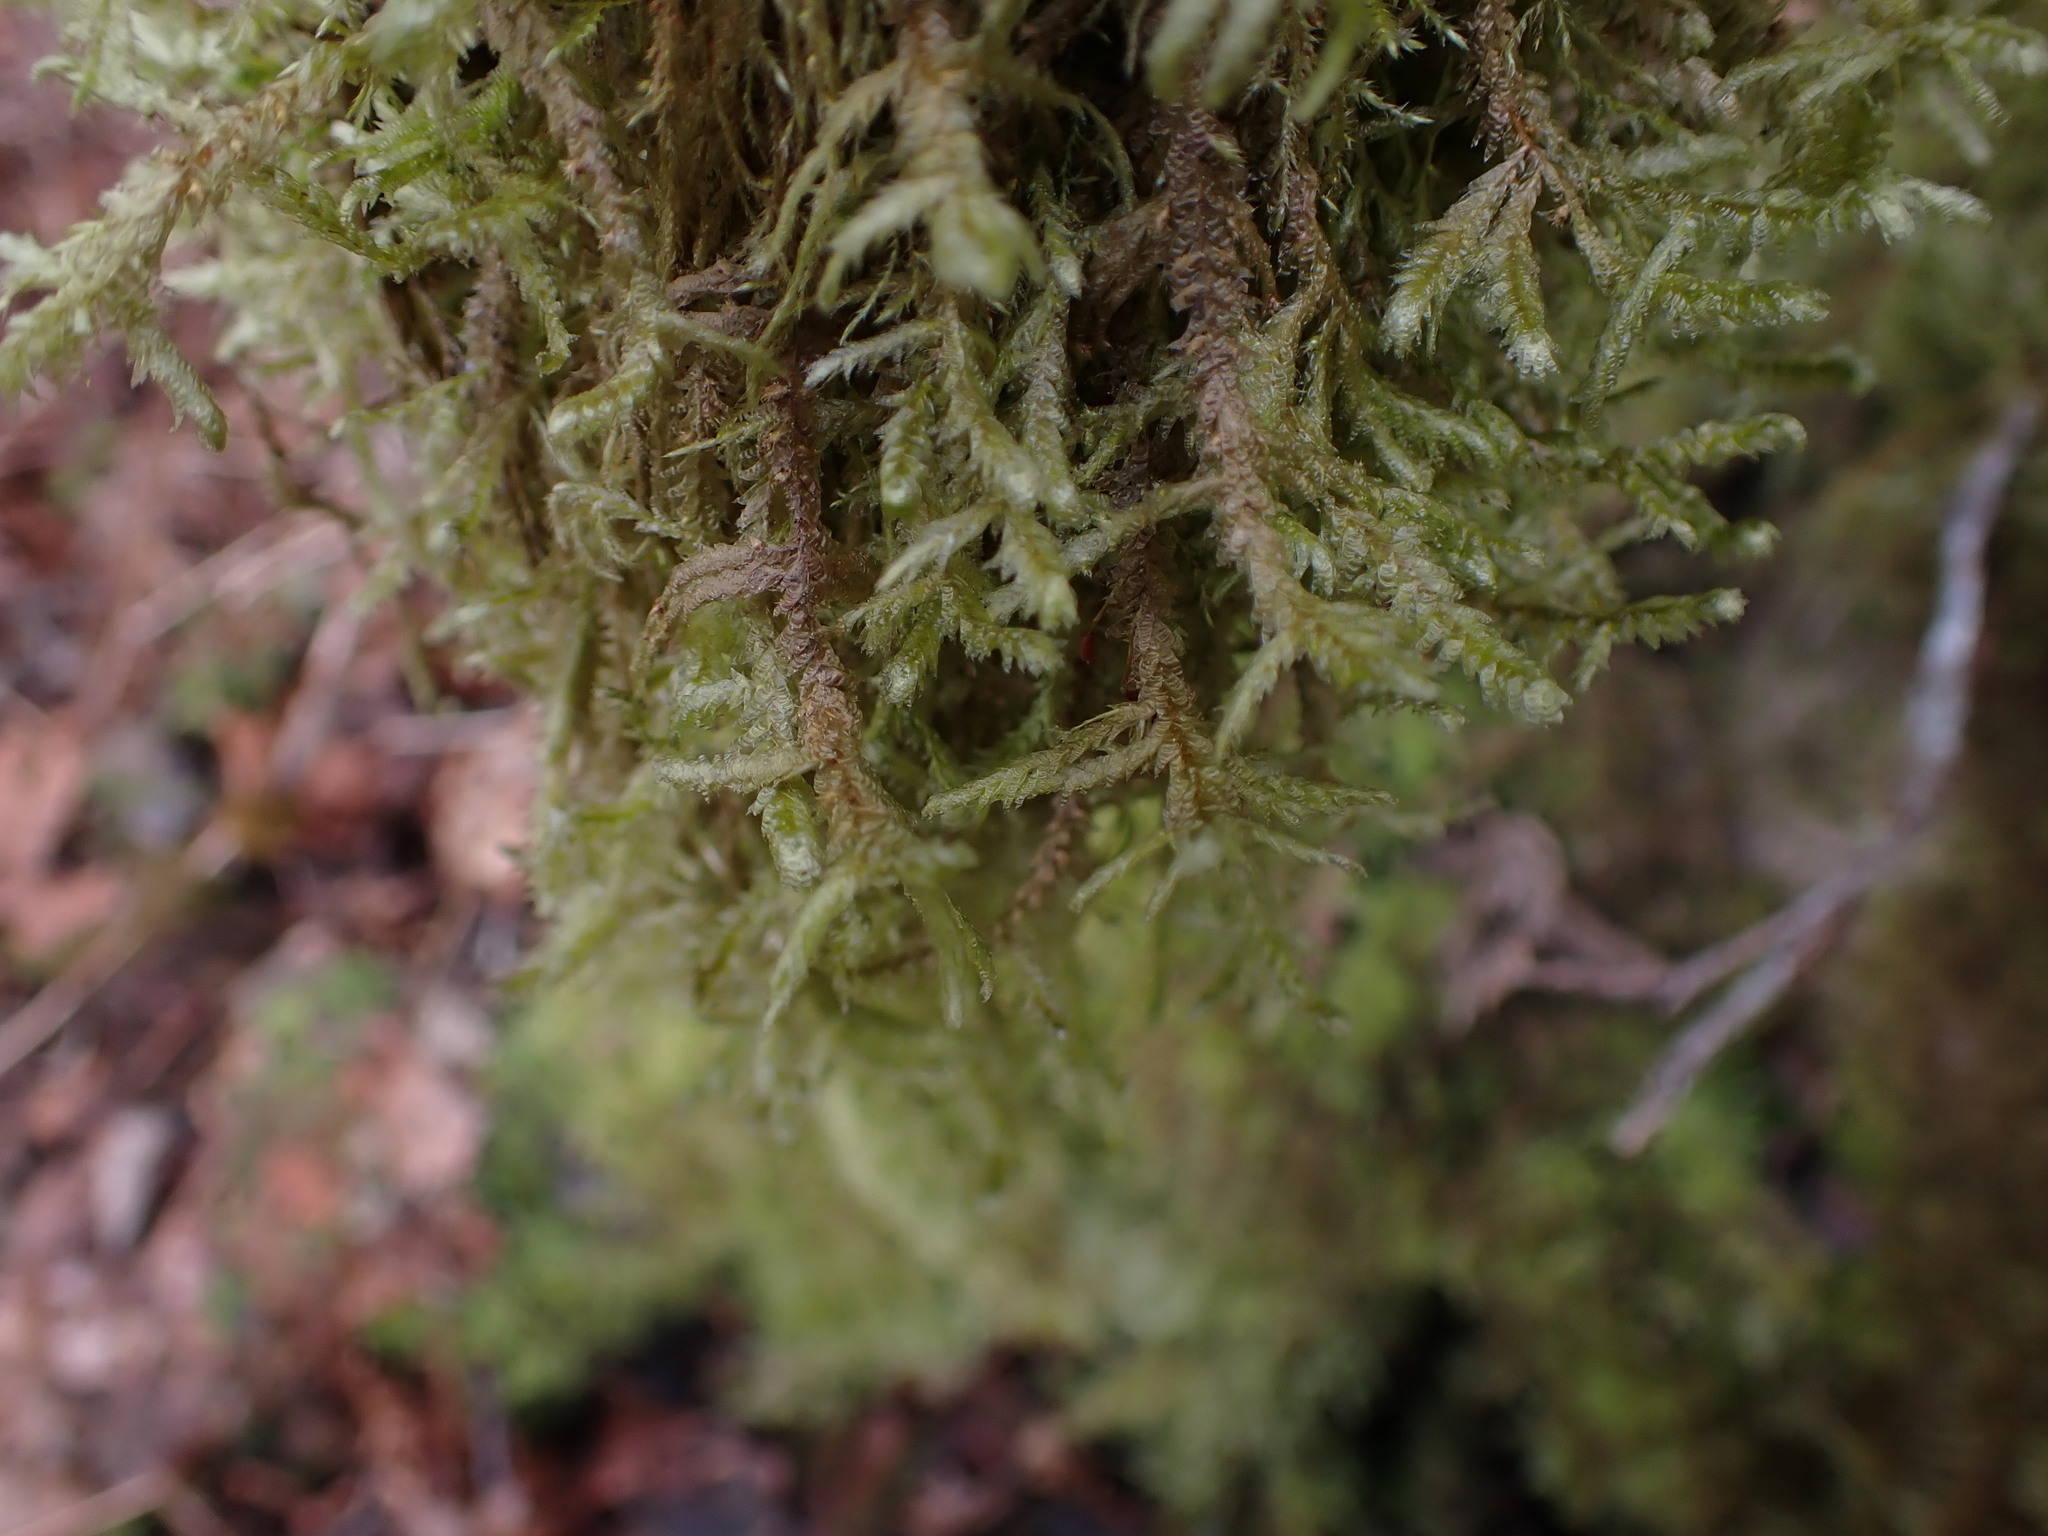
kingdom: Plantae
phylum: Bryophyta
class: Bryopsida
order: Hypnales
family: Neckeraceae
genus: Neckera
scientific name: Neckera douglasii
